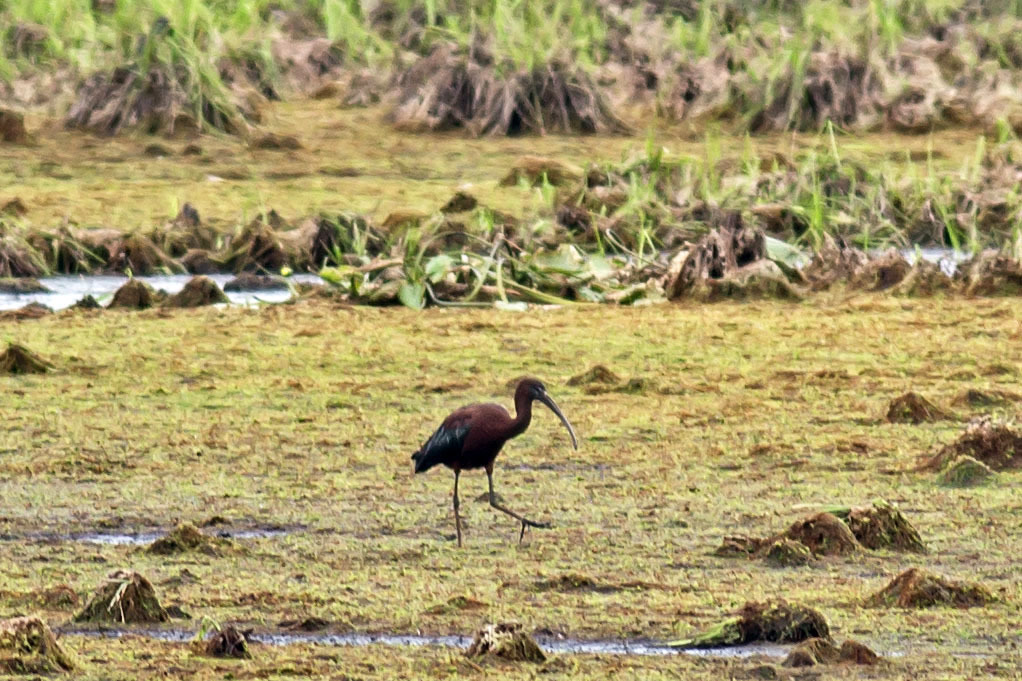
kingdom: Animalia
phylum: Chordata
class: Aves
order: Pelecaniformes
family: Threskiornithidae
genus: Plegadis
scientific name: Plegadis falcinellus
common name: Glossy ibis
